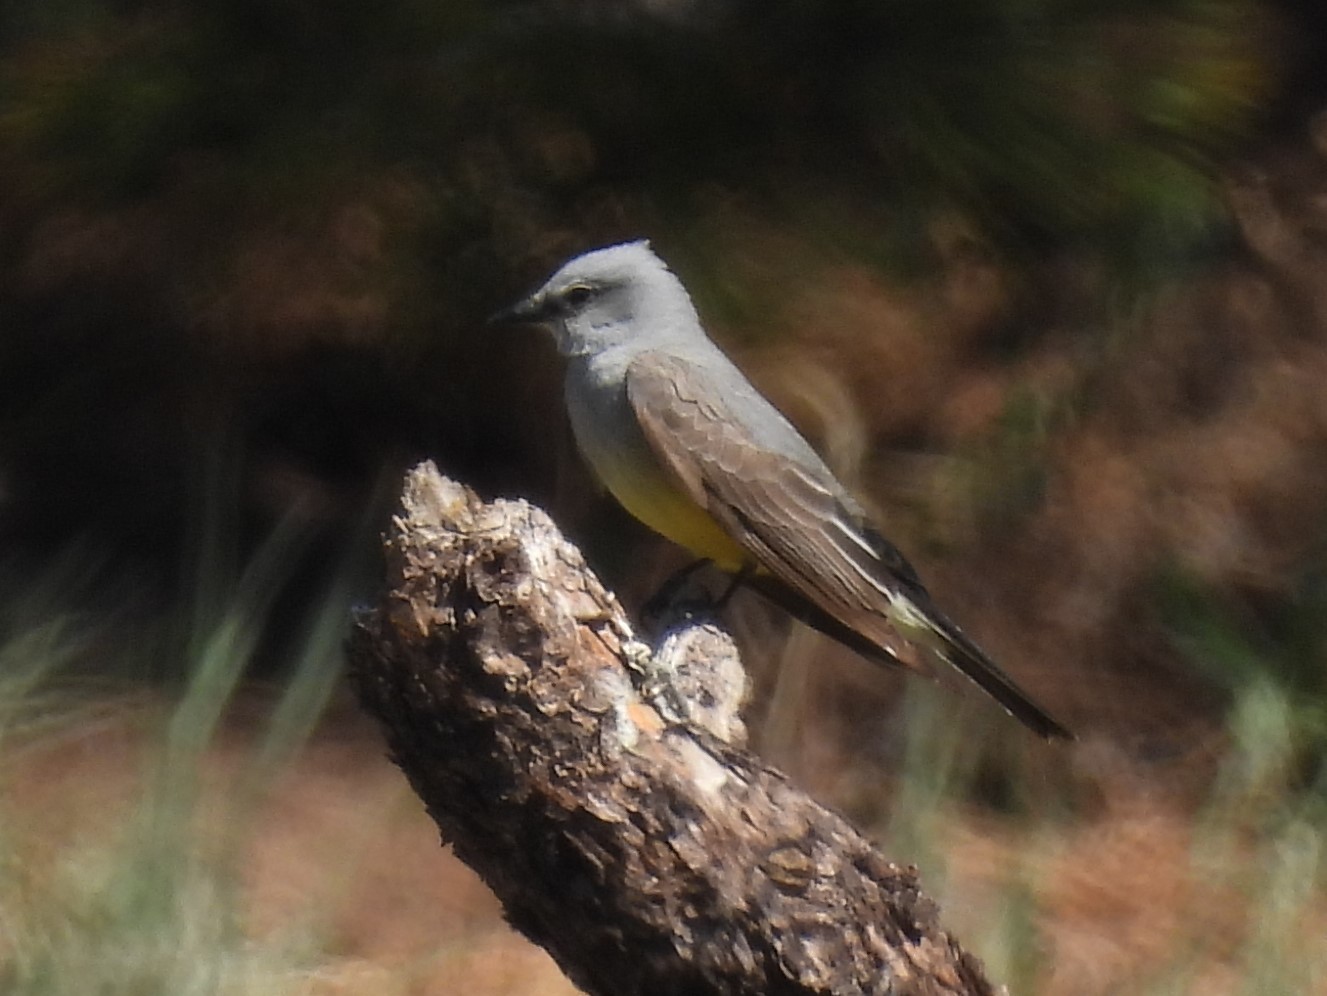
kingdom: Animalia
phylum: Chordata
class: Aves
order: Passeriformes
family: Tyrannidae
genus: Tyrannus
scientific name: Tyrannus verticalis
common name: Western kingbird
